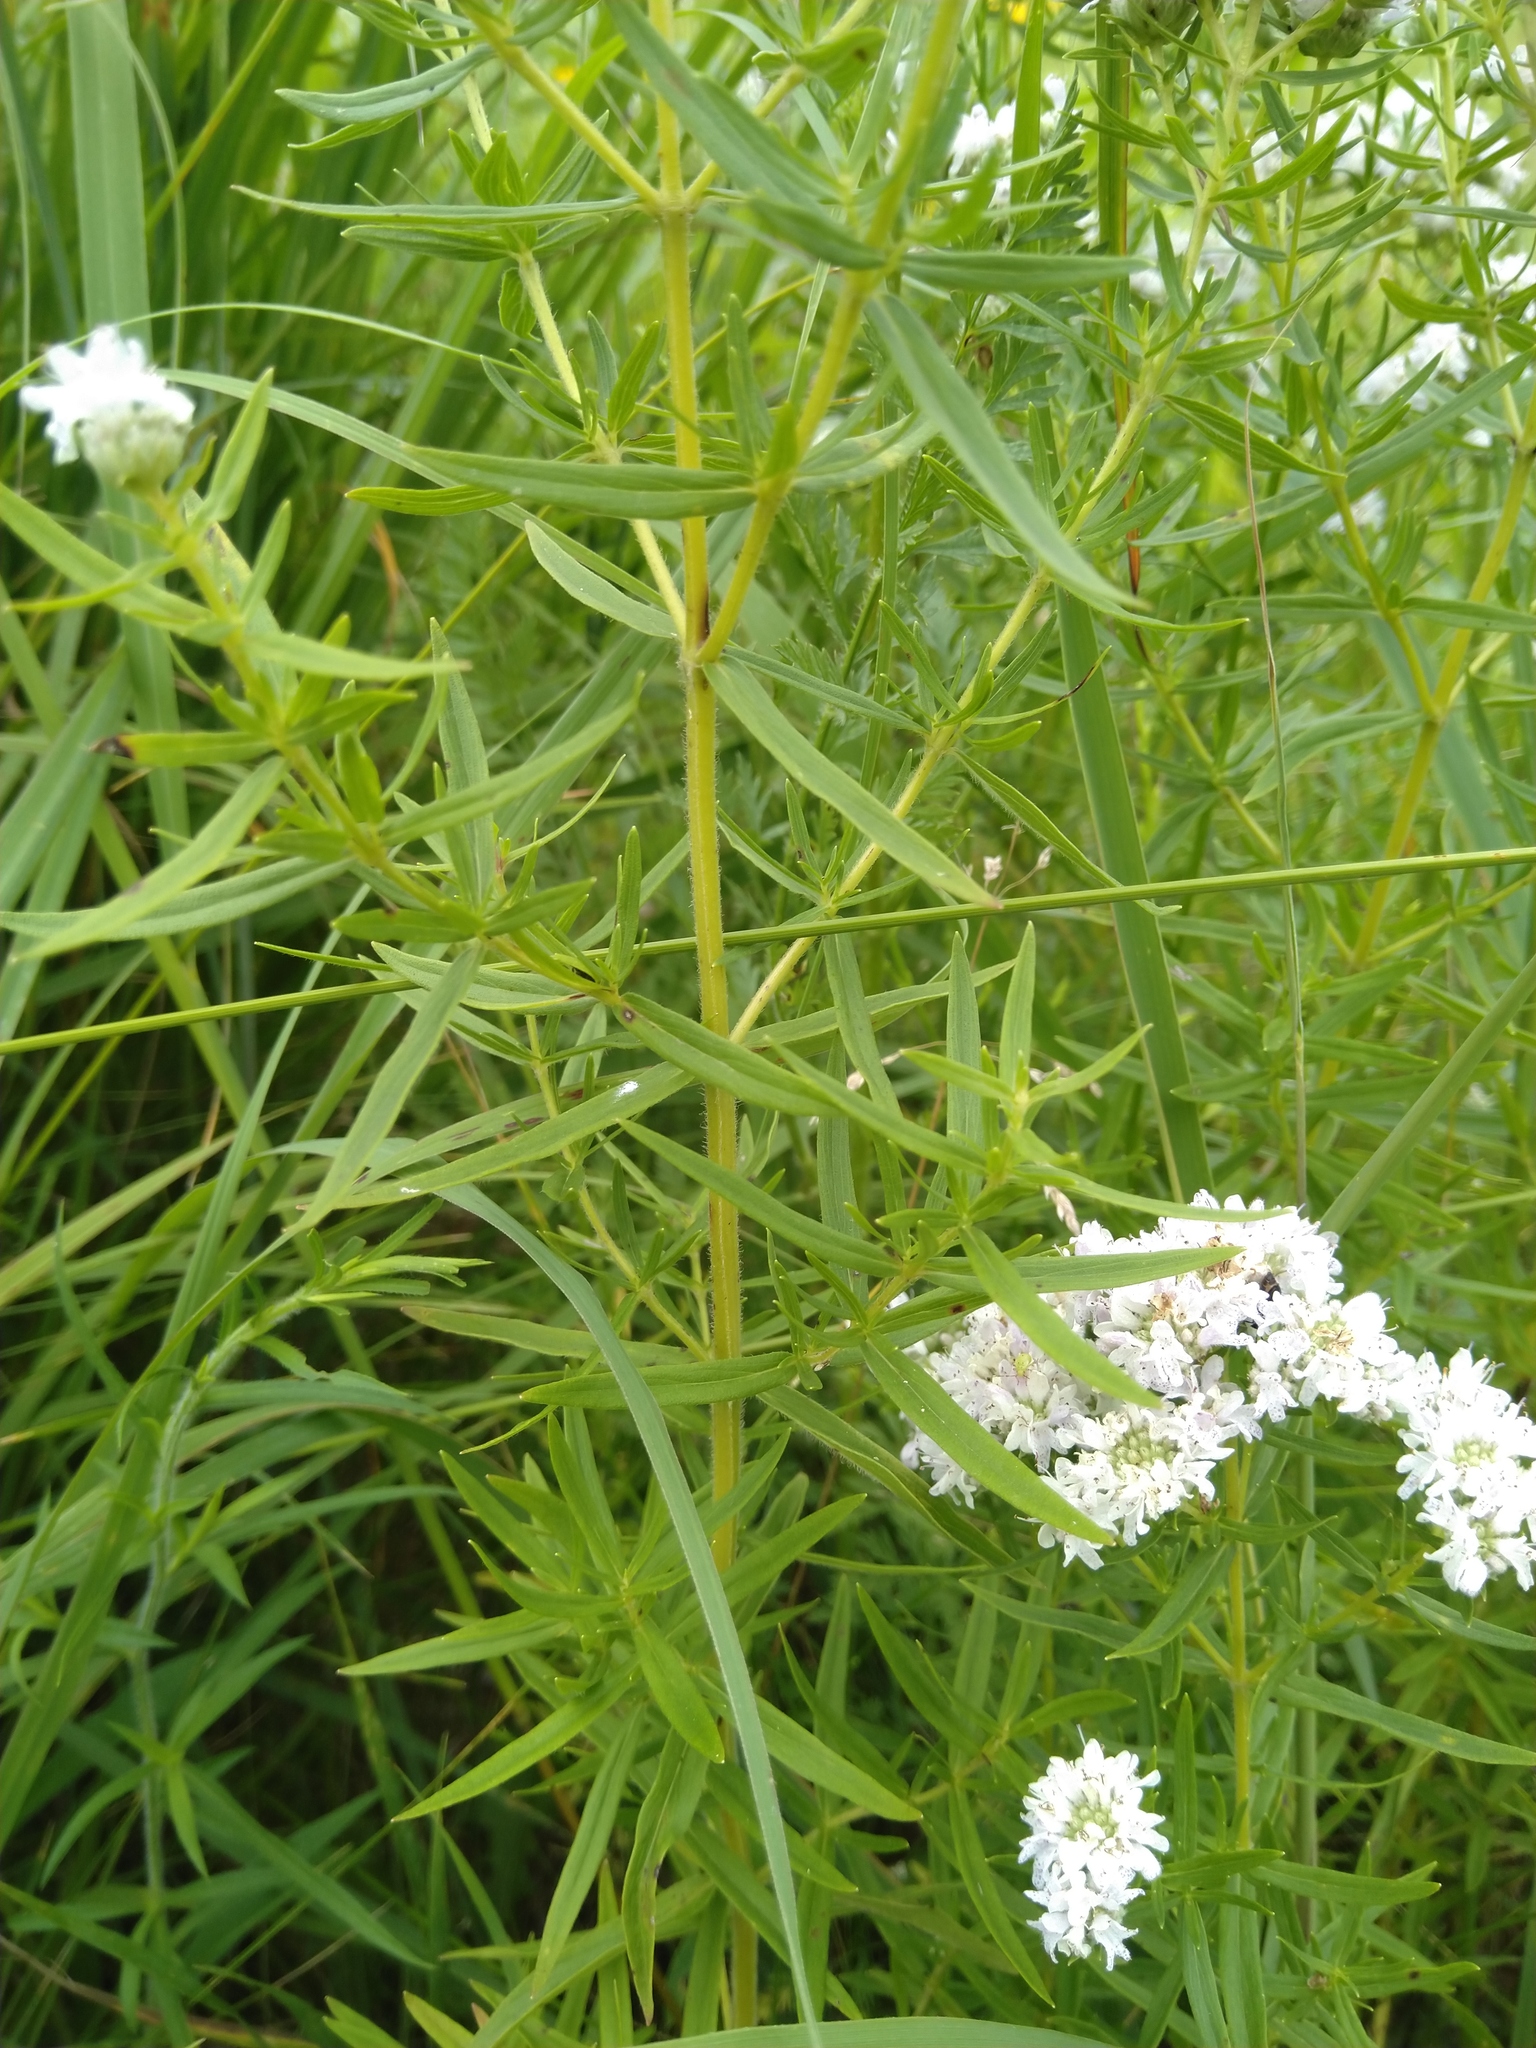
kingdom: Plantae
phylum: Tracheophyta
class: Magnoliopsida
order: Lamiales
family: Lamiaceae
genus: Pycnanthemum
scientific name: Pycnanthemum virginianum
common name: Virginia mountain-mint
